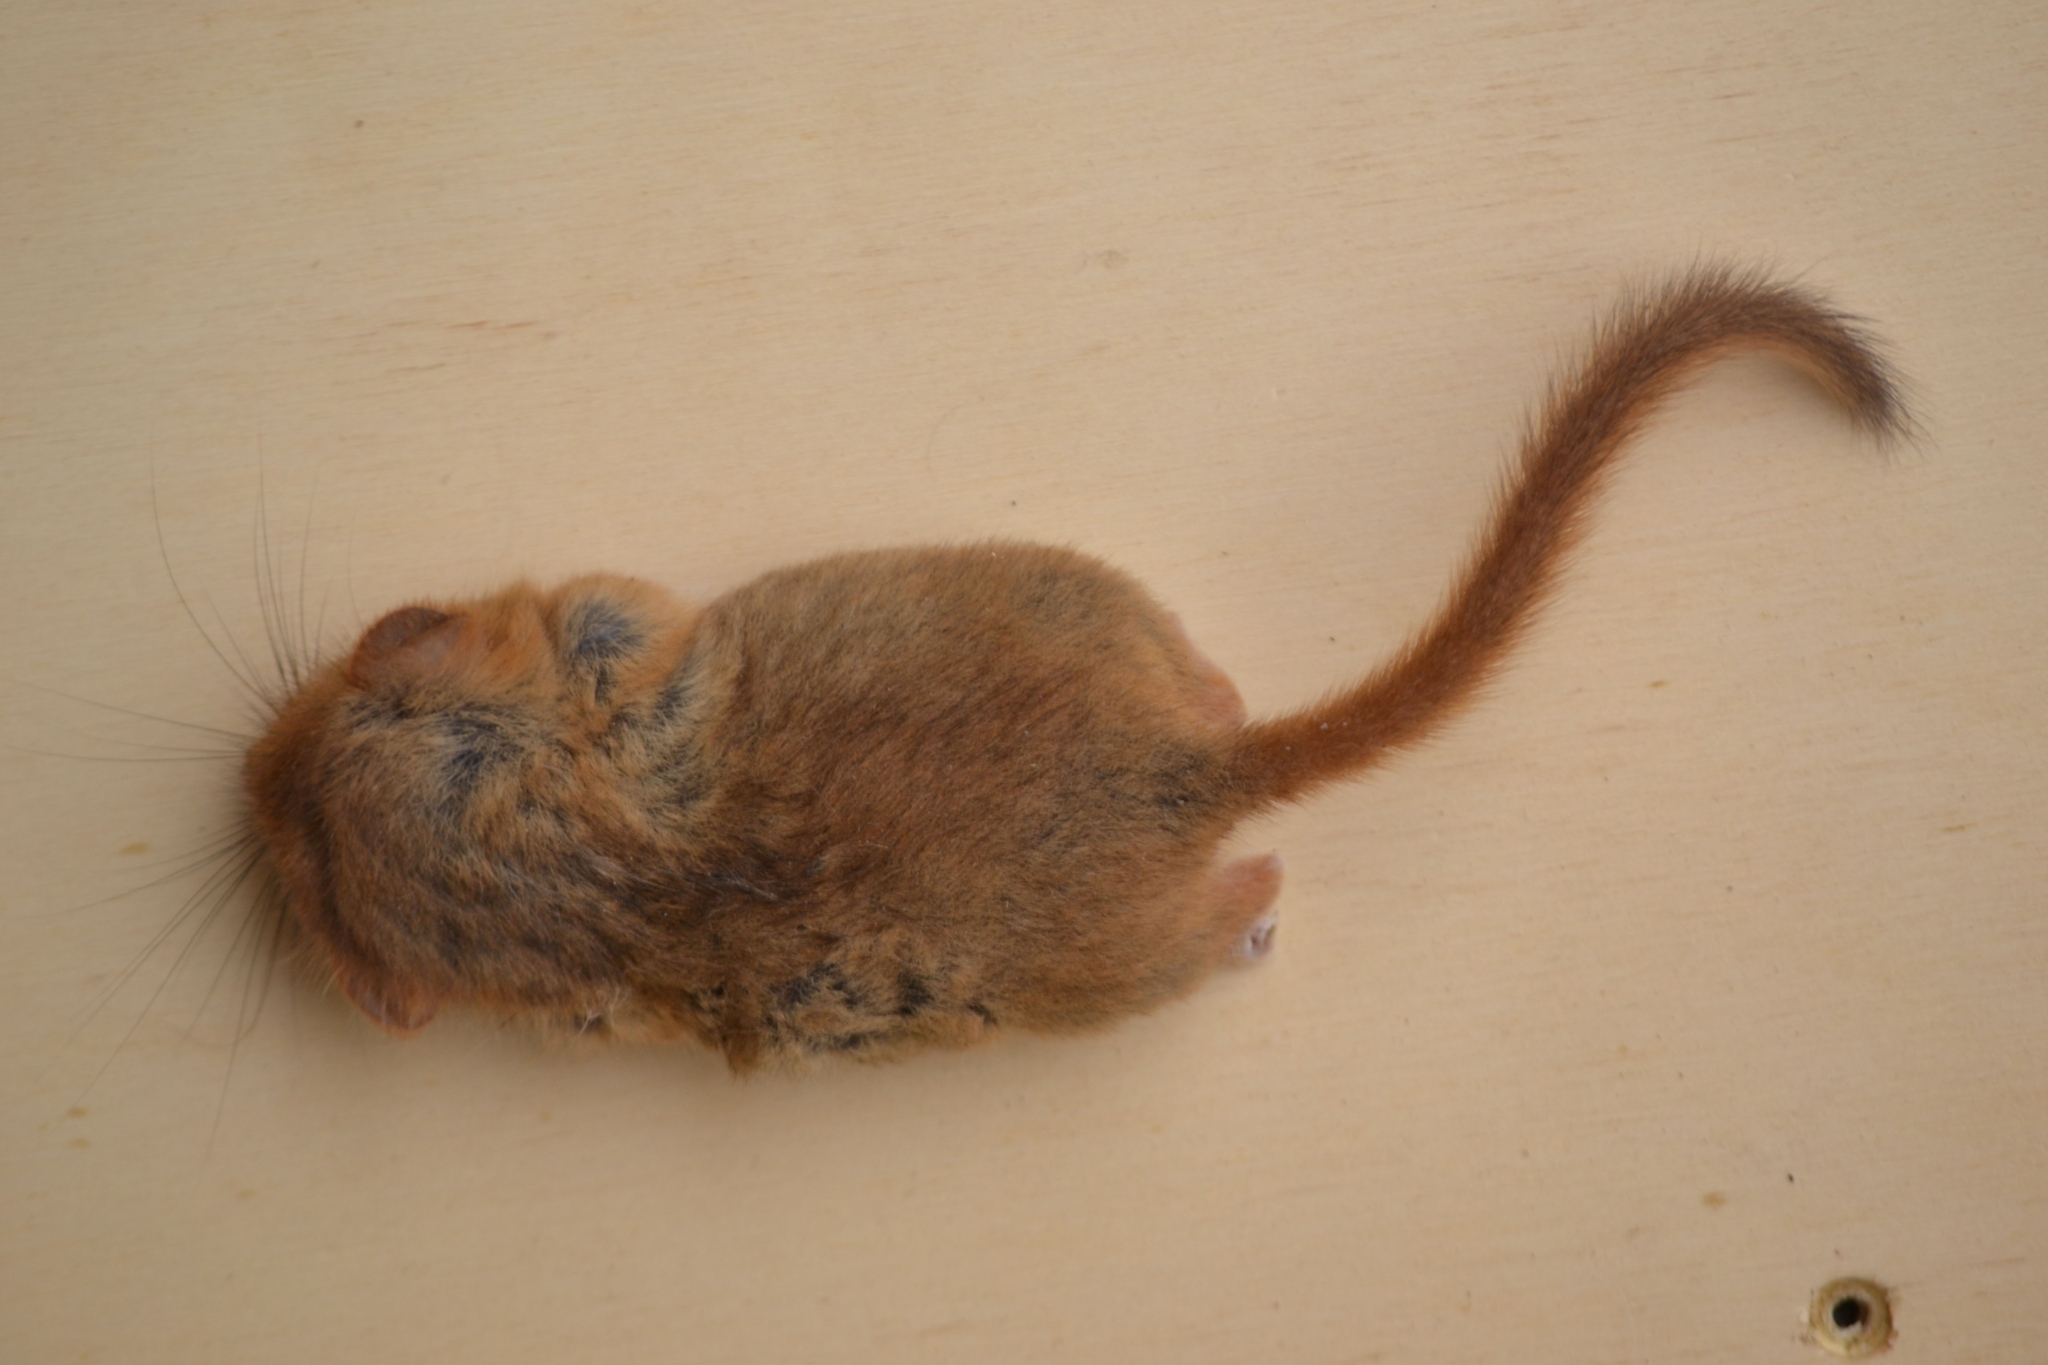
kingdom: Animalia
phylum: Chordata
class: Mammalia
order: Rodentia
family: Gliridae
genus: Muscardinus
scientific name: Muscardinus avellanarius
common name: Hazel dormouse
